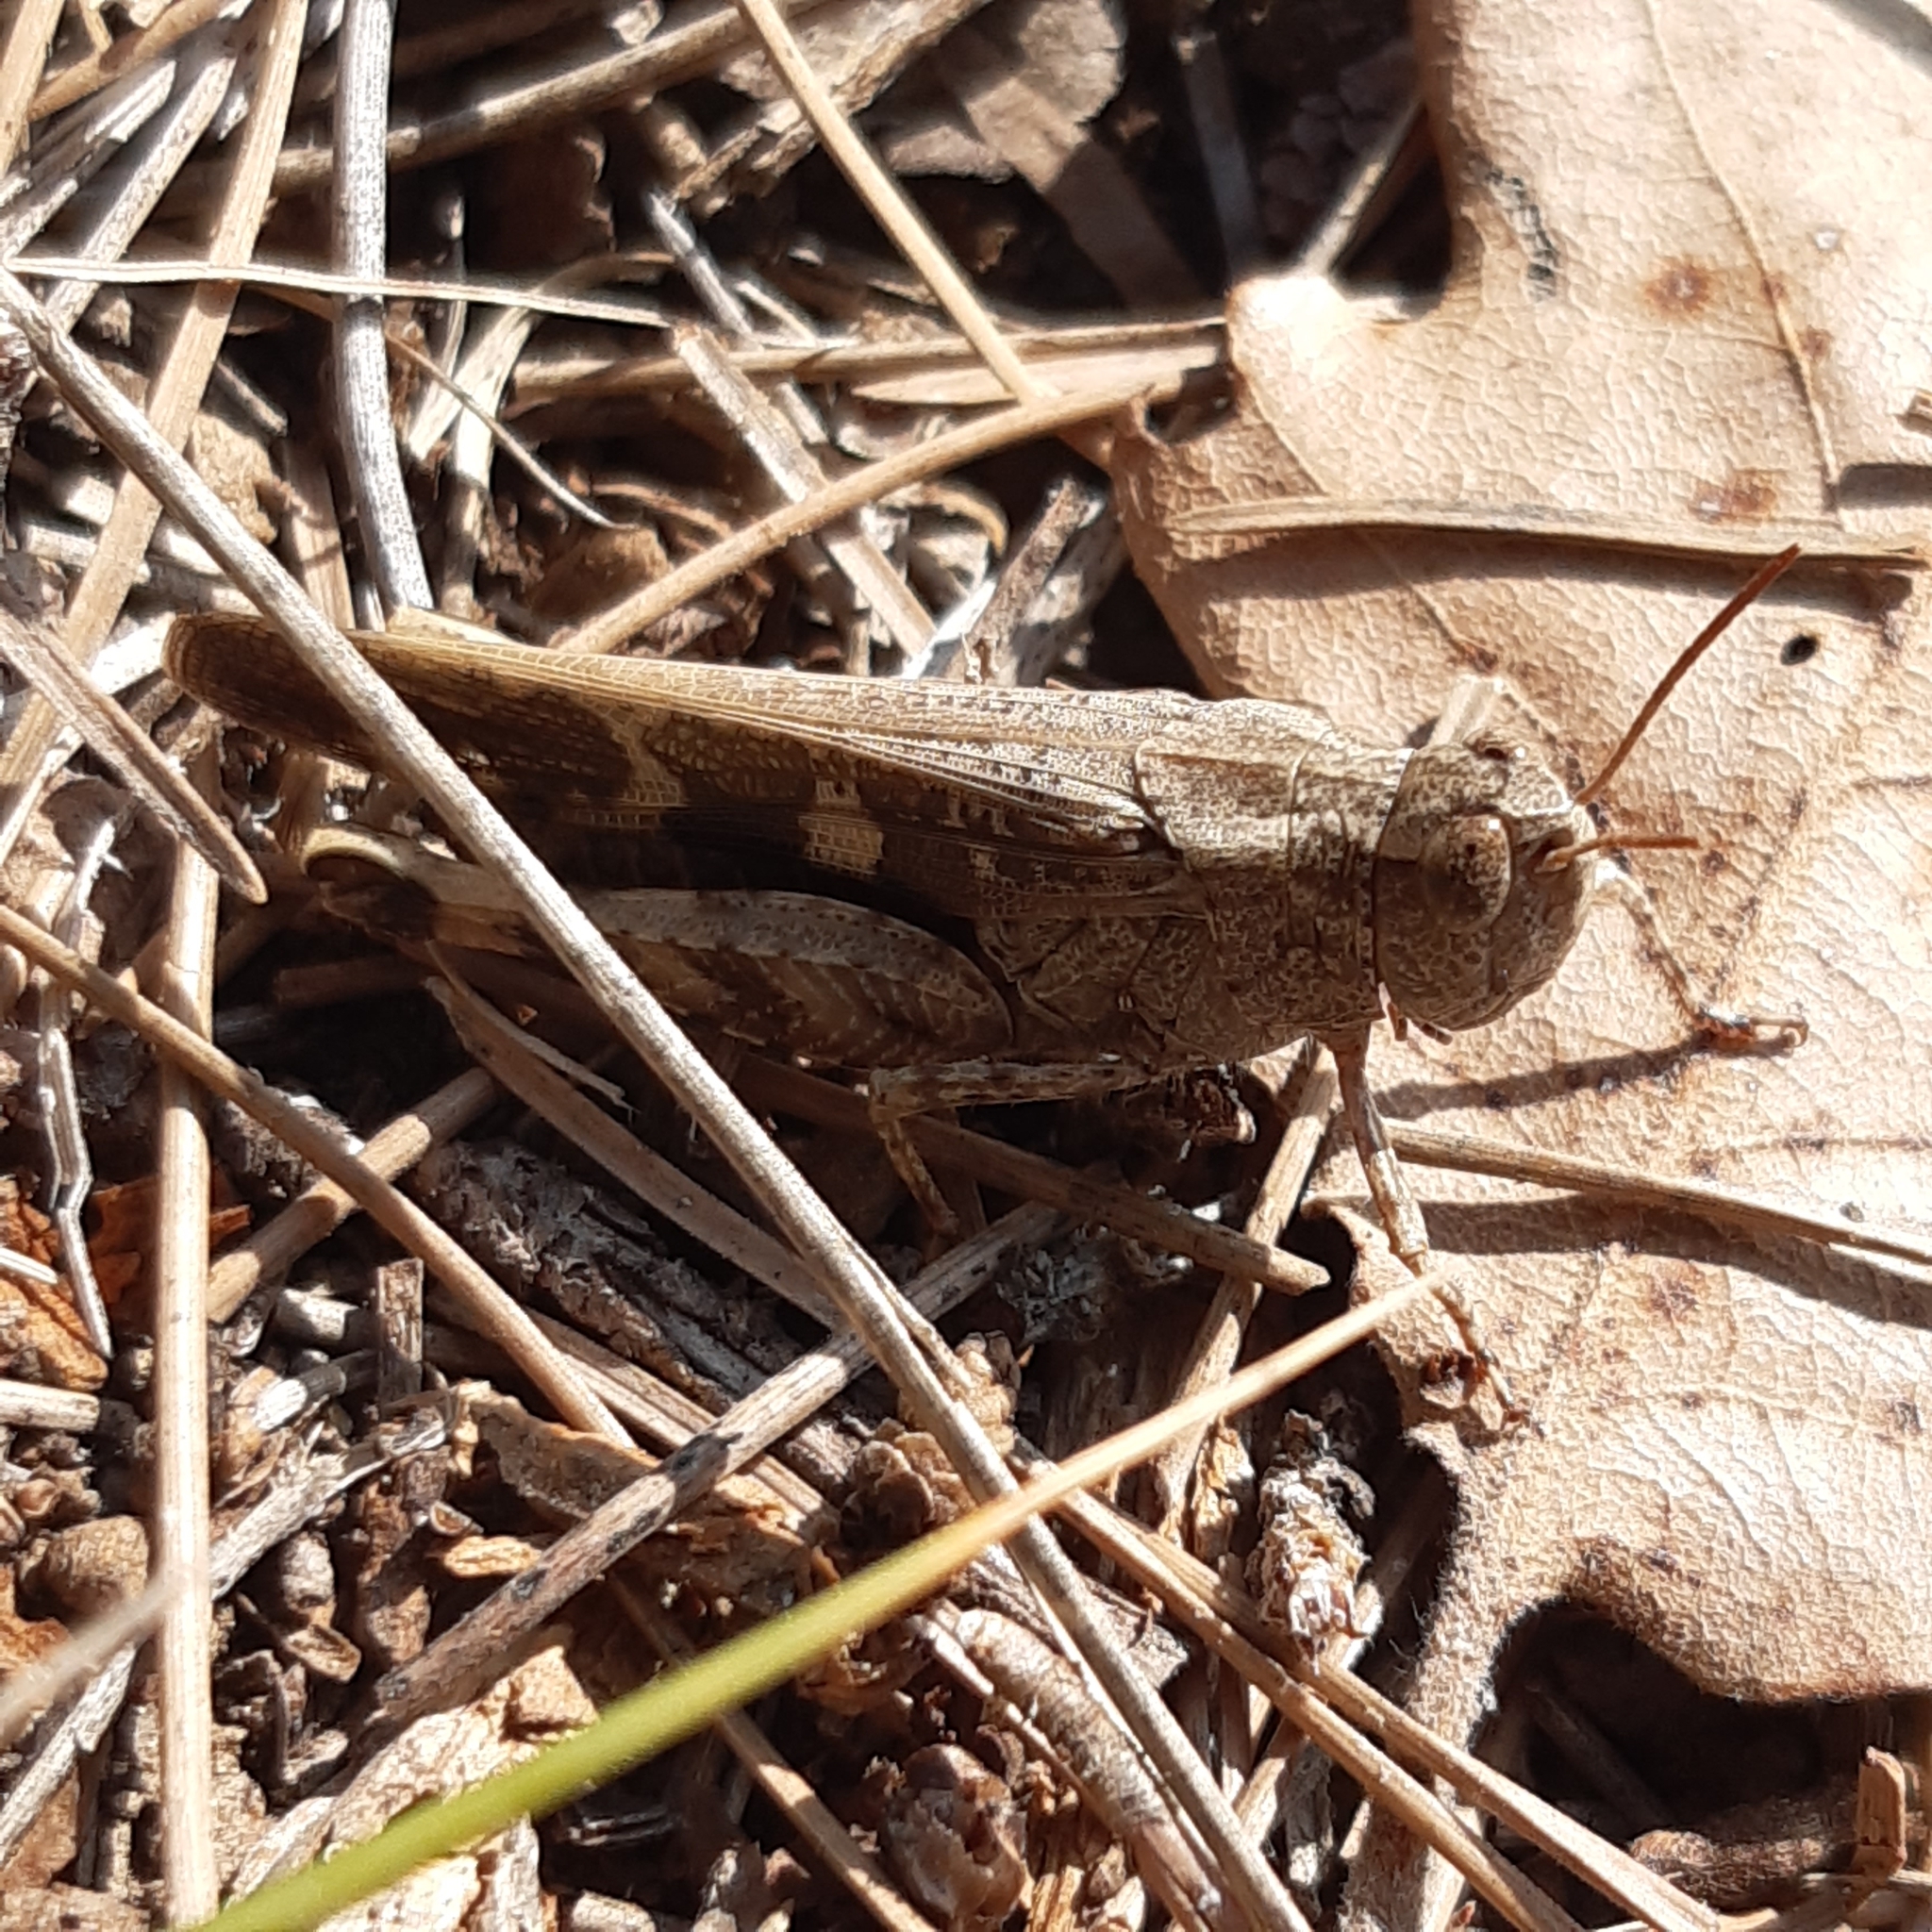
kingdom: Animalia
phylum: Arthropoda
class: Insecta
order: Orthoptera
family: Acrididae
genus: Aiolopus
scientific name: Aiolopus strepens
